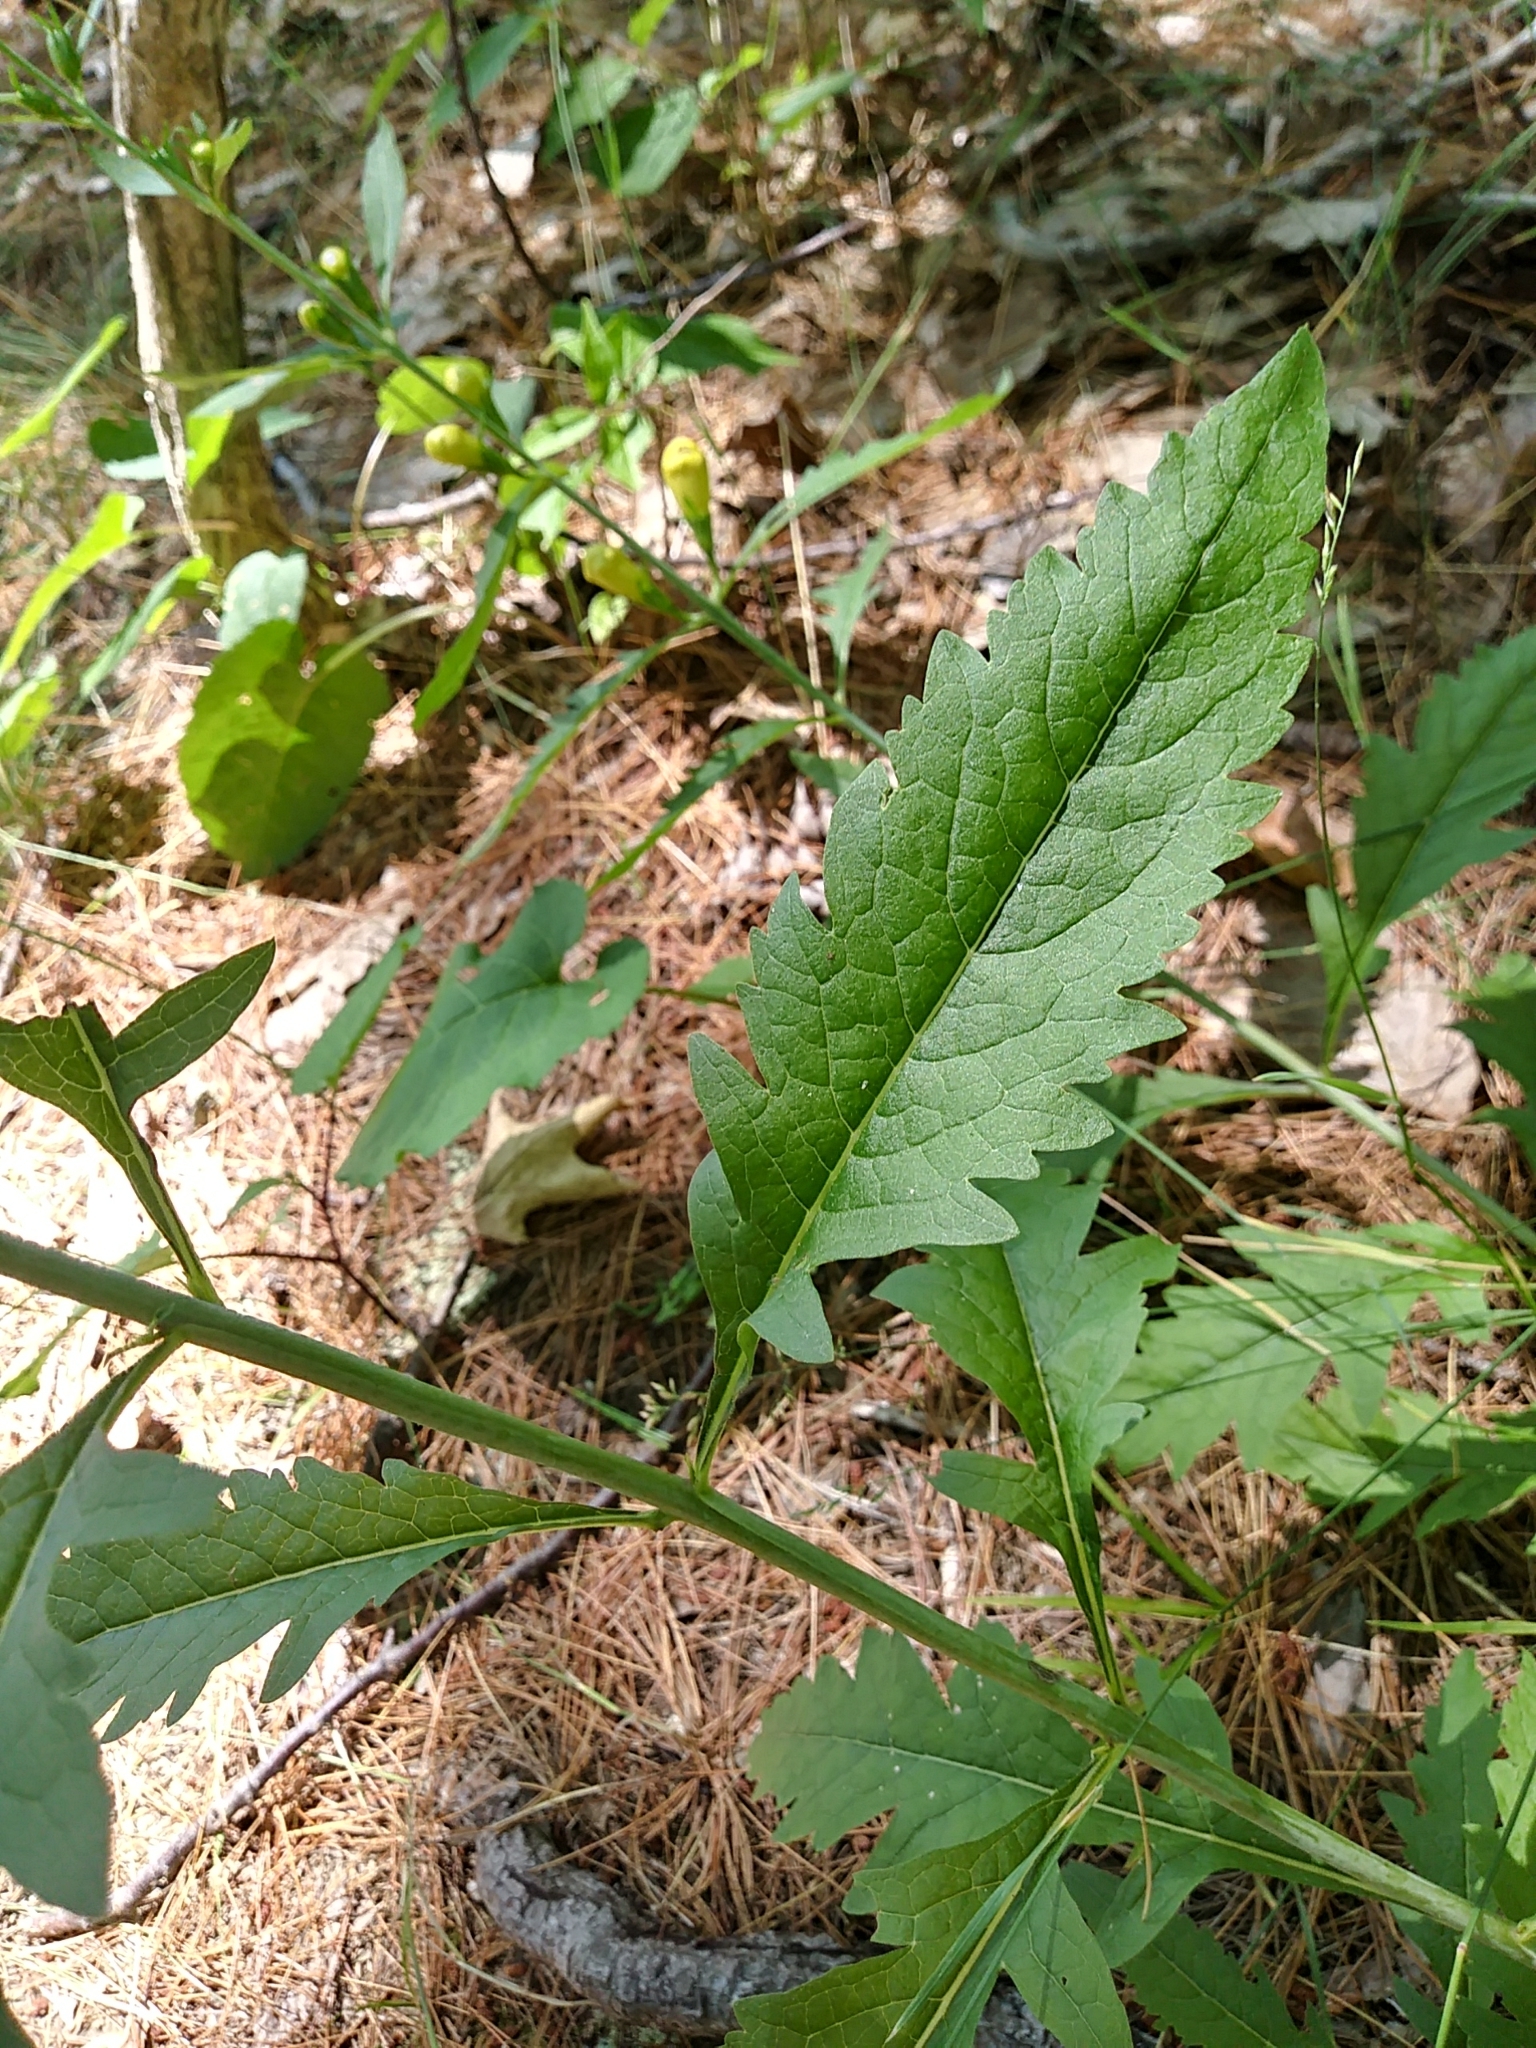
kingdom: Plantae
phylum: Tracheophyta
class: Magnoliopsida
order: Lamiales
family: Orobanchaceae
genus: Aureolaria
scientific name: Aureolaria flava
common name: Smooth false foxglove
